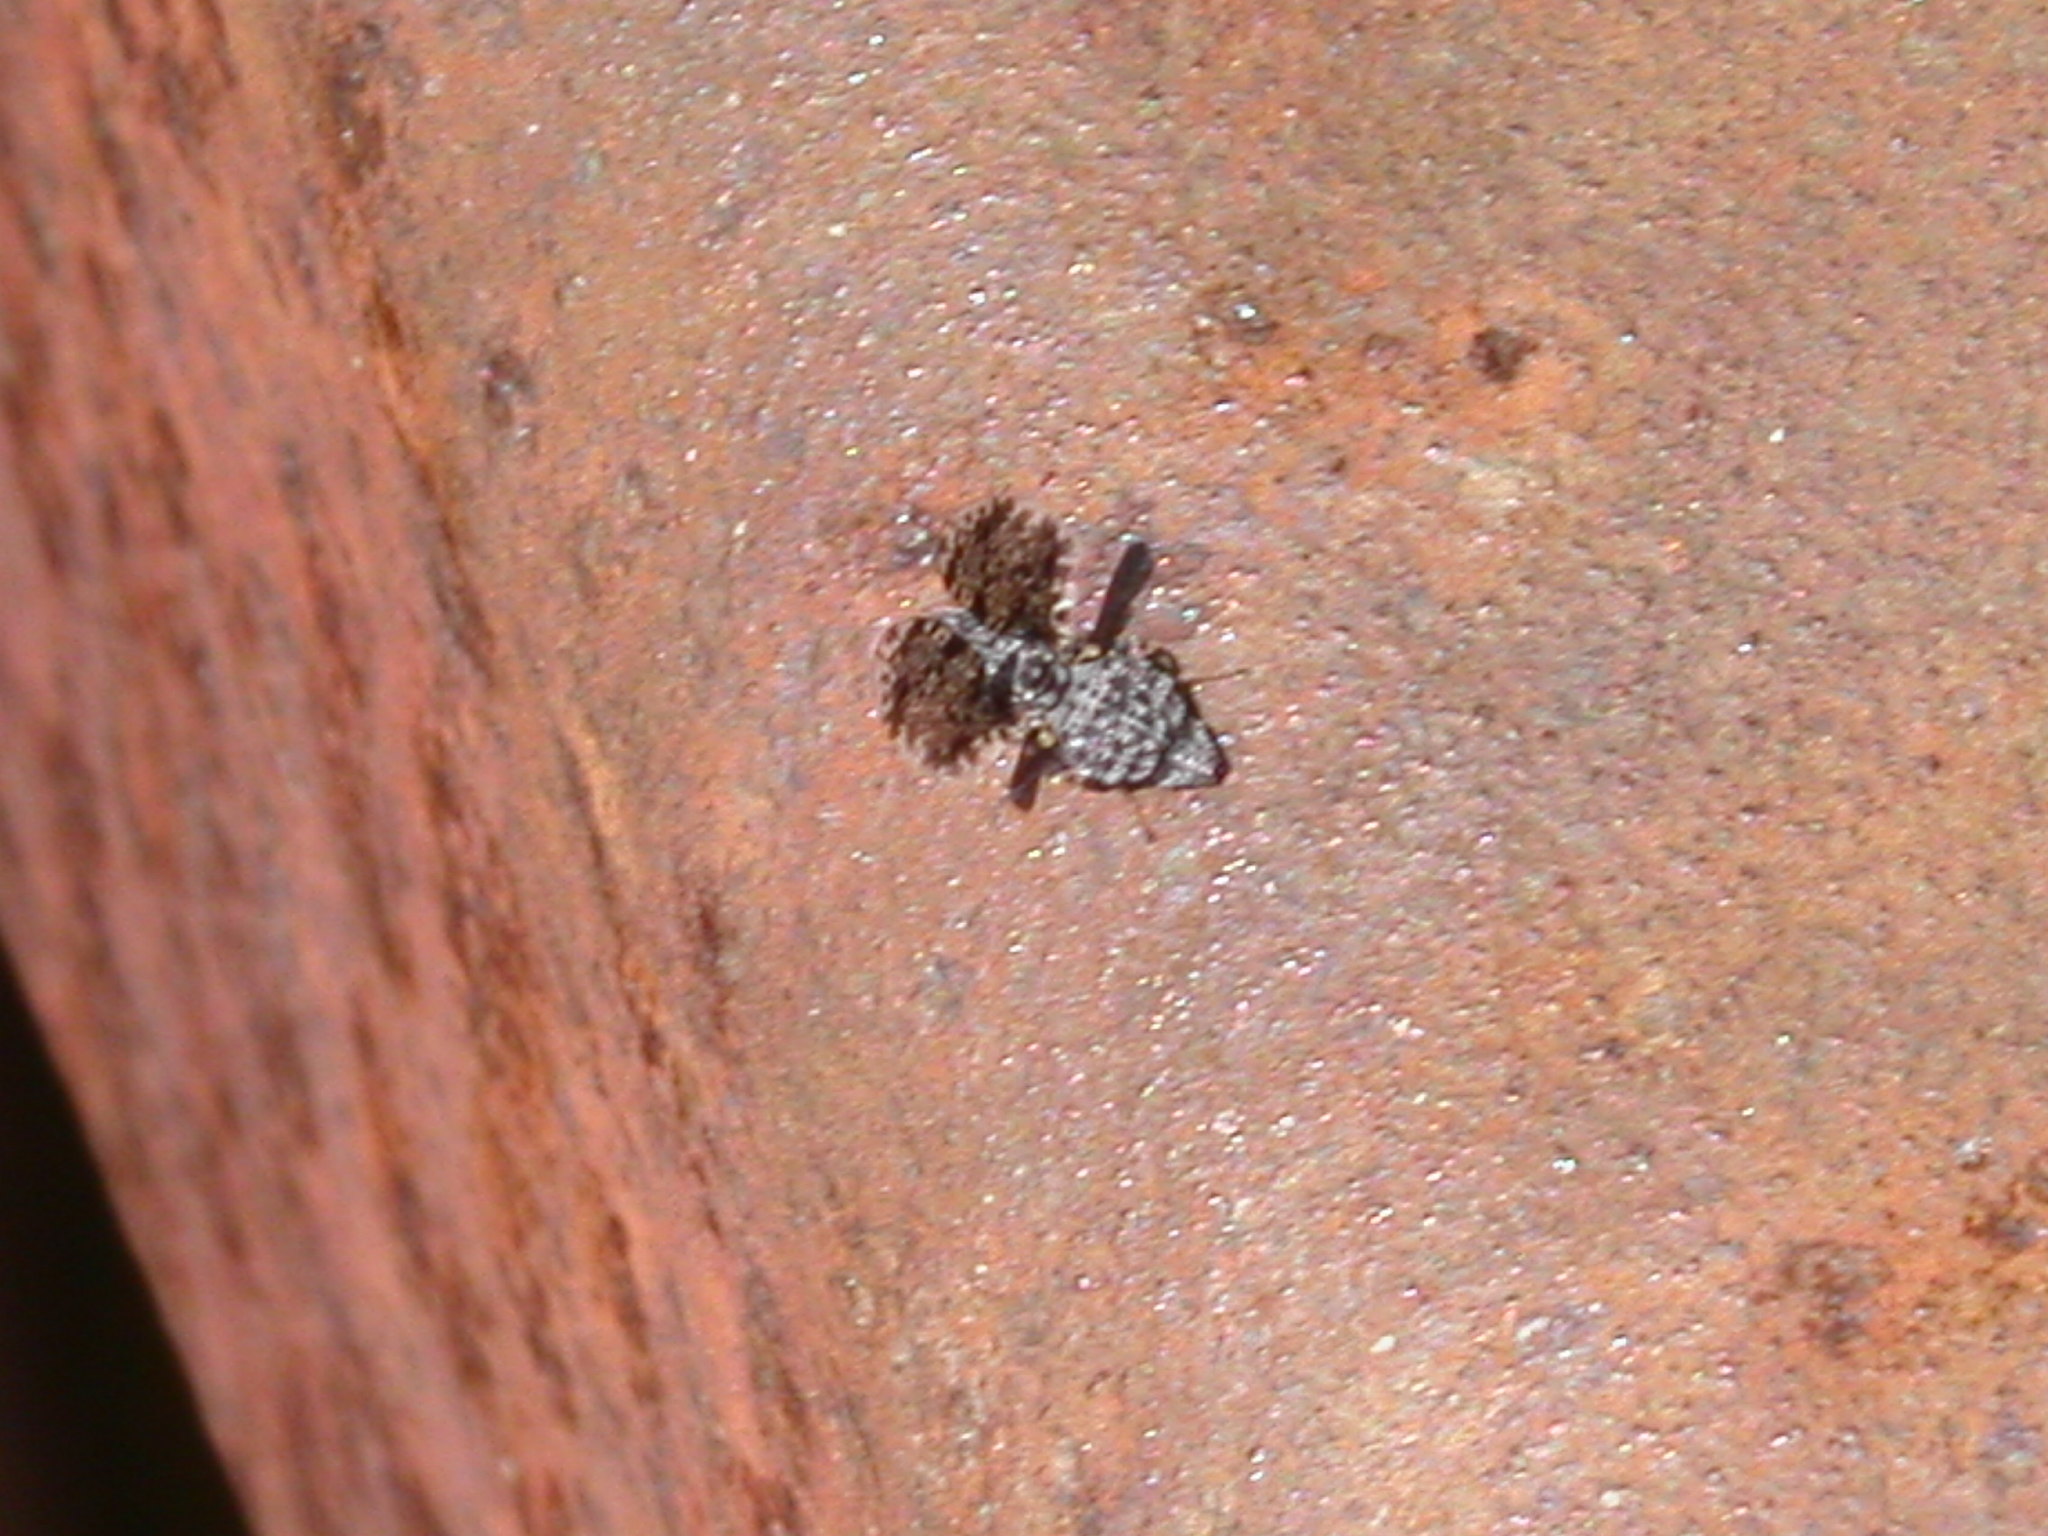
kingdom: Animalia
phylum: Arthropoda
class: Insecta
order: Diptera
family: Ulidiidae
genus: Callopistromyia
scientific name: Callopistromyia annulipes
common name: Peacock fly
